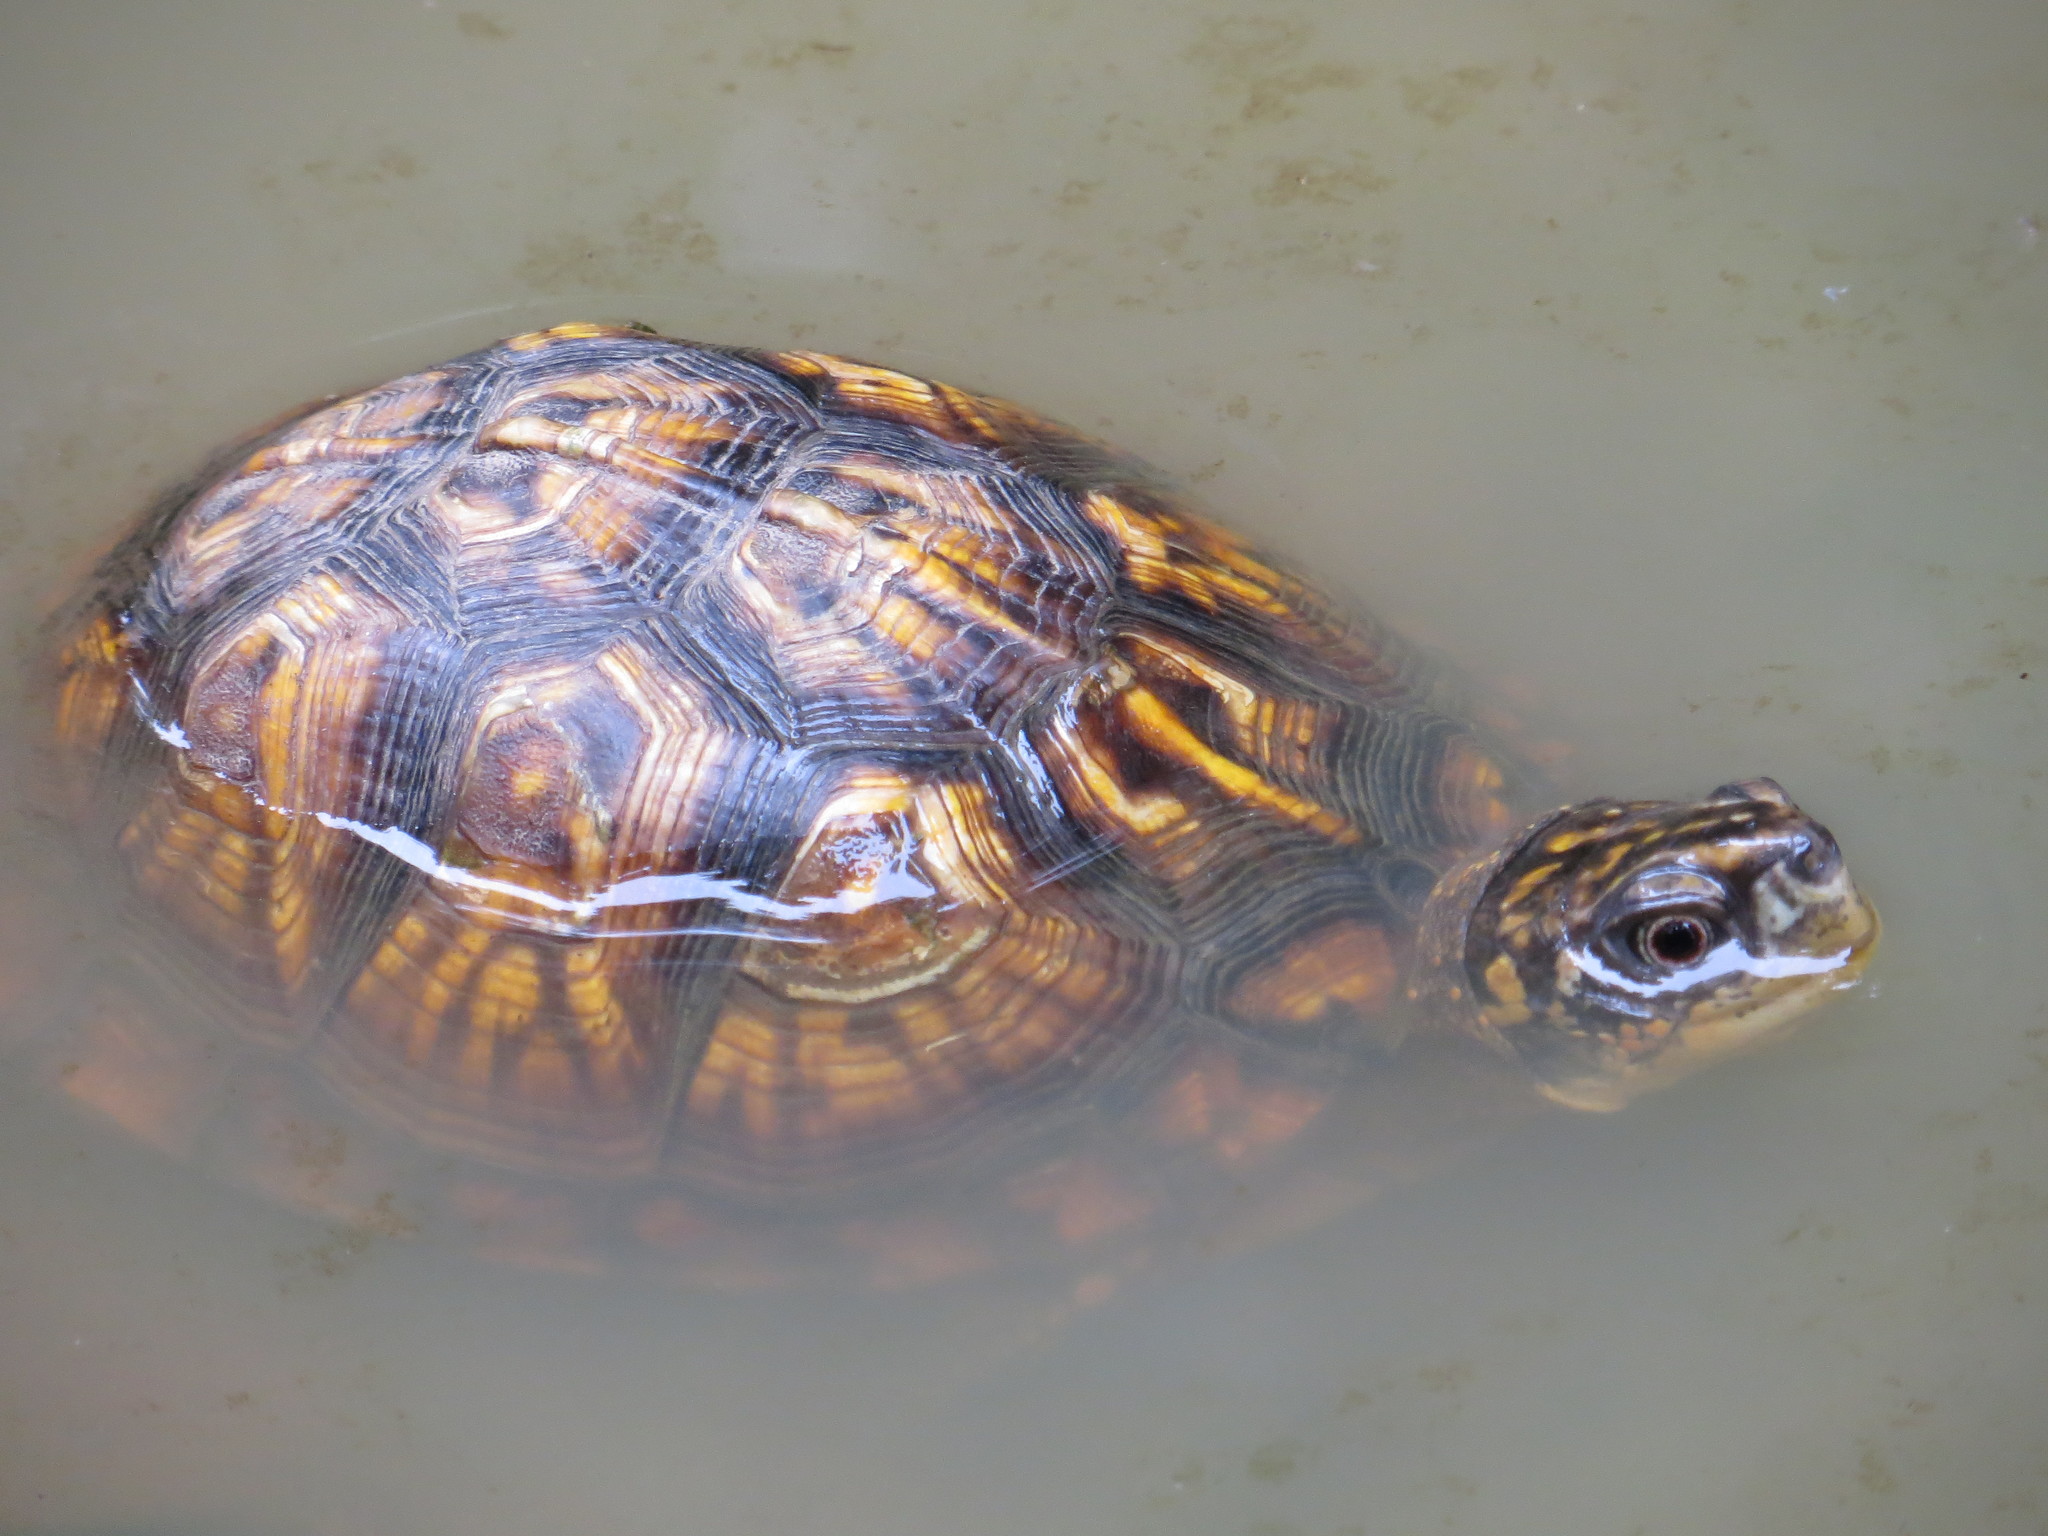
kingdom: Animalia
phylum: Chordata
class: Testudines
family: Emydidae
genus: Terrapene
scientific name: Terrapene carolina
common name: Common box turtle
